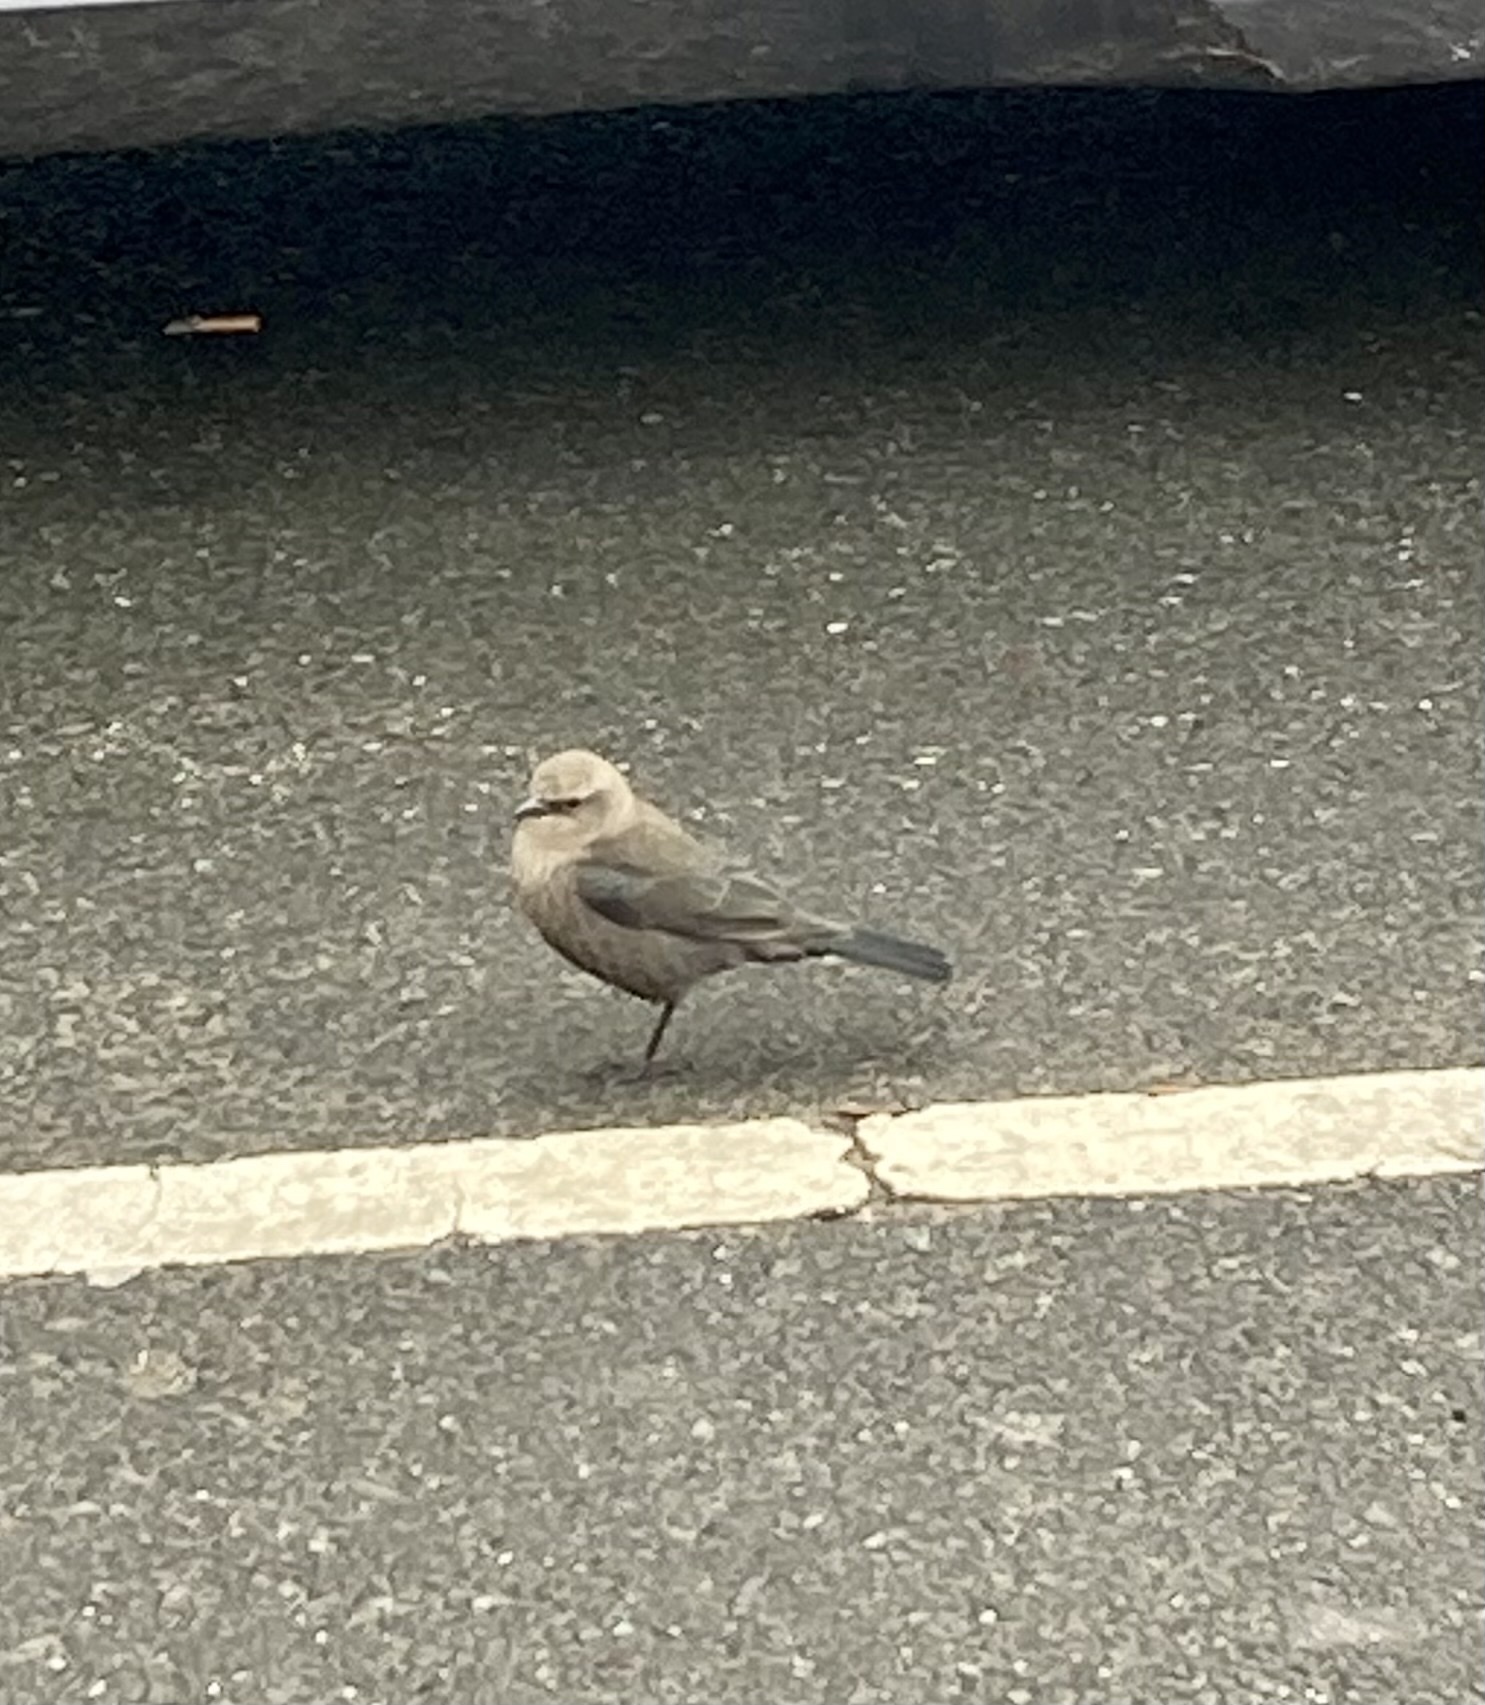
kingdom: Animalia
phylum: Chordata
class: Aves
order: Passeriformes
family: Icteridae
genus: Euphagus
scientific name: Euphagus cyanocephalus
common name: Brewer's blackbird
